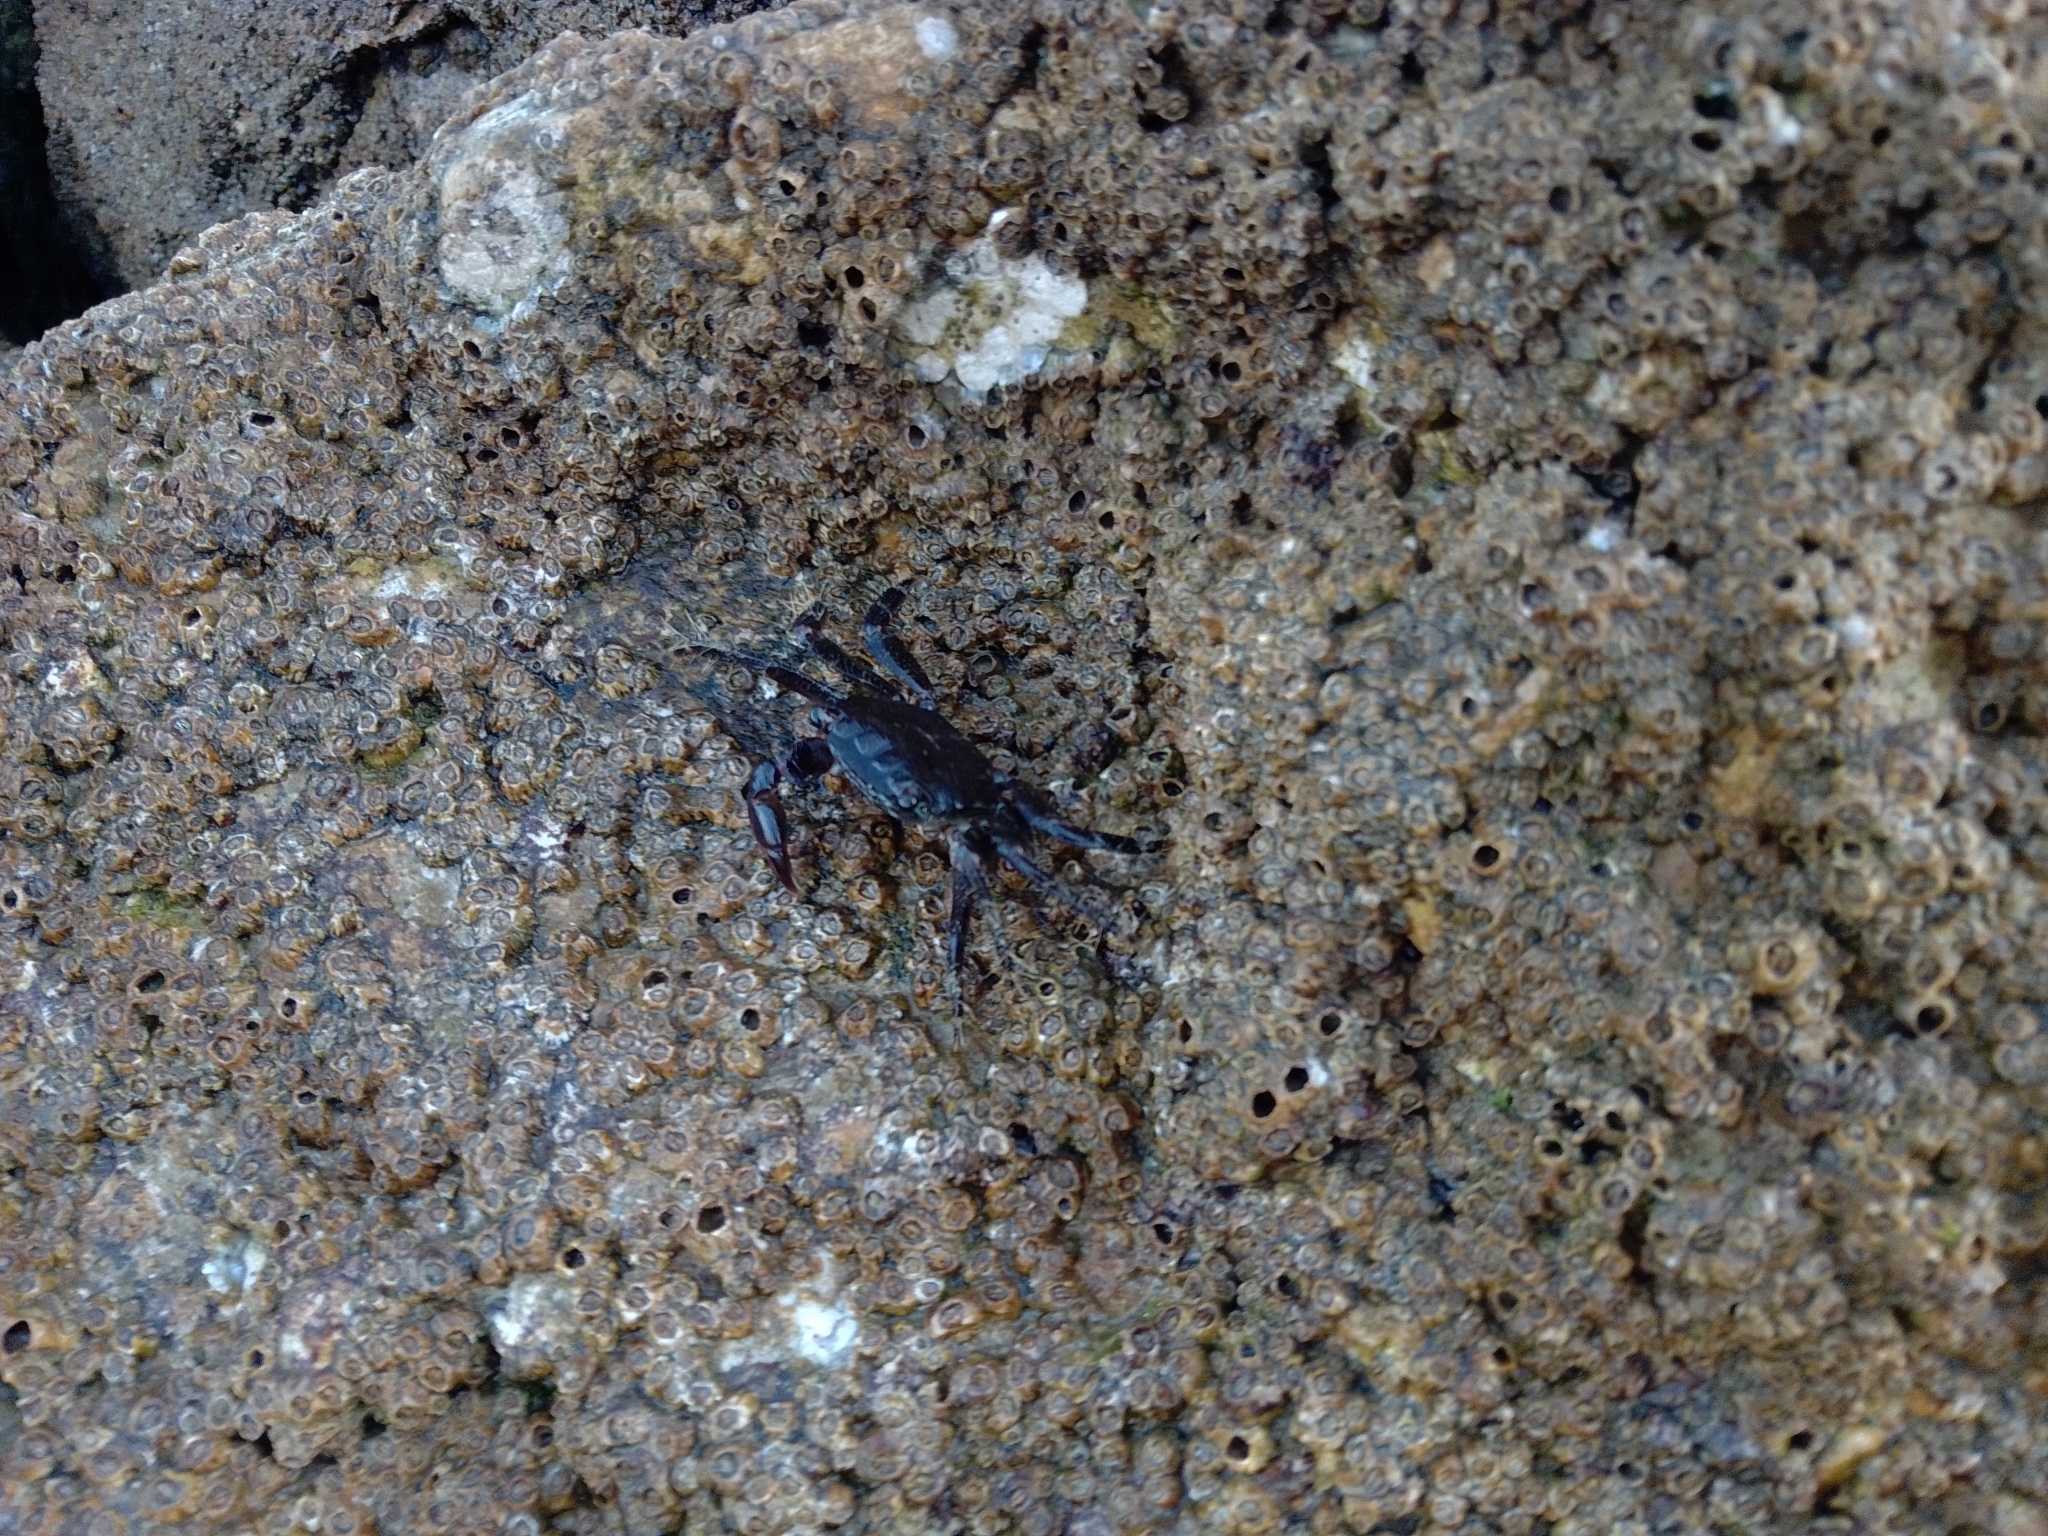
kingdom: Animalia
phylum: Arthropoda
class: Malacostraca
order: Decapoda
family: Grapsidae
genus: Pachygrapsus
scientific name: Pachygrapsus marmoratus
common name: Marbled rock crab
